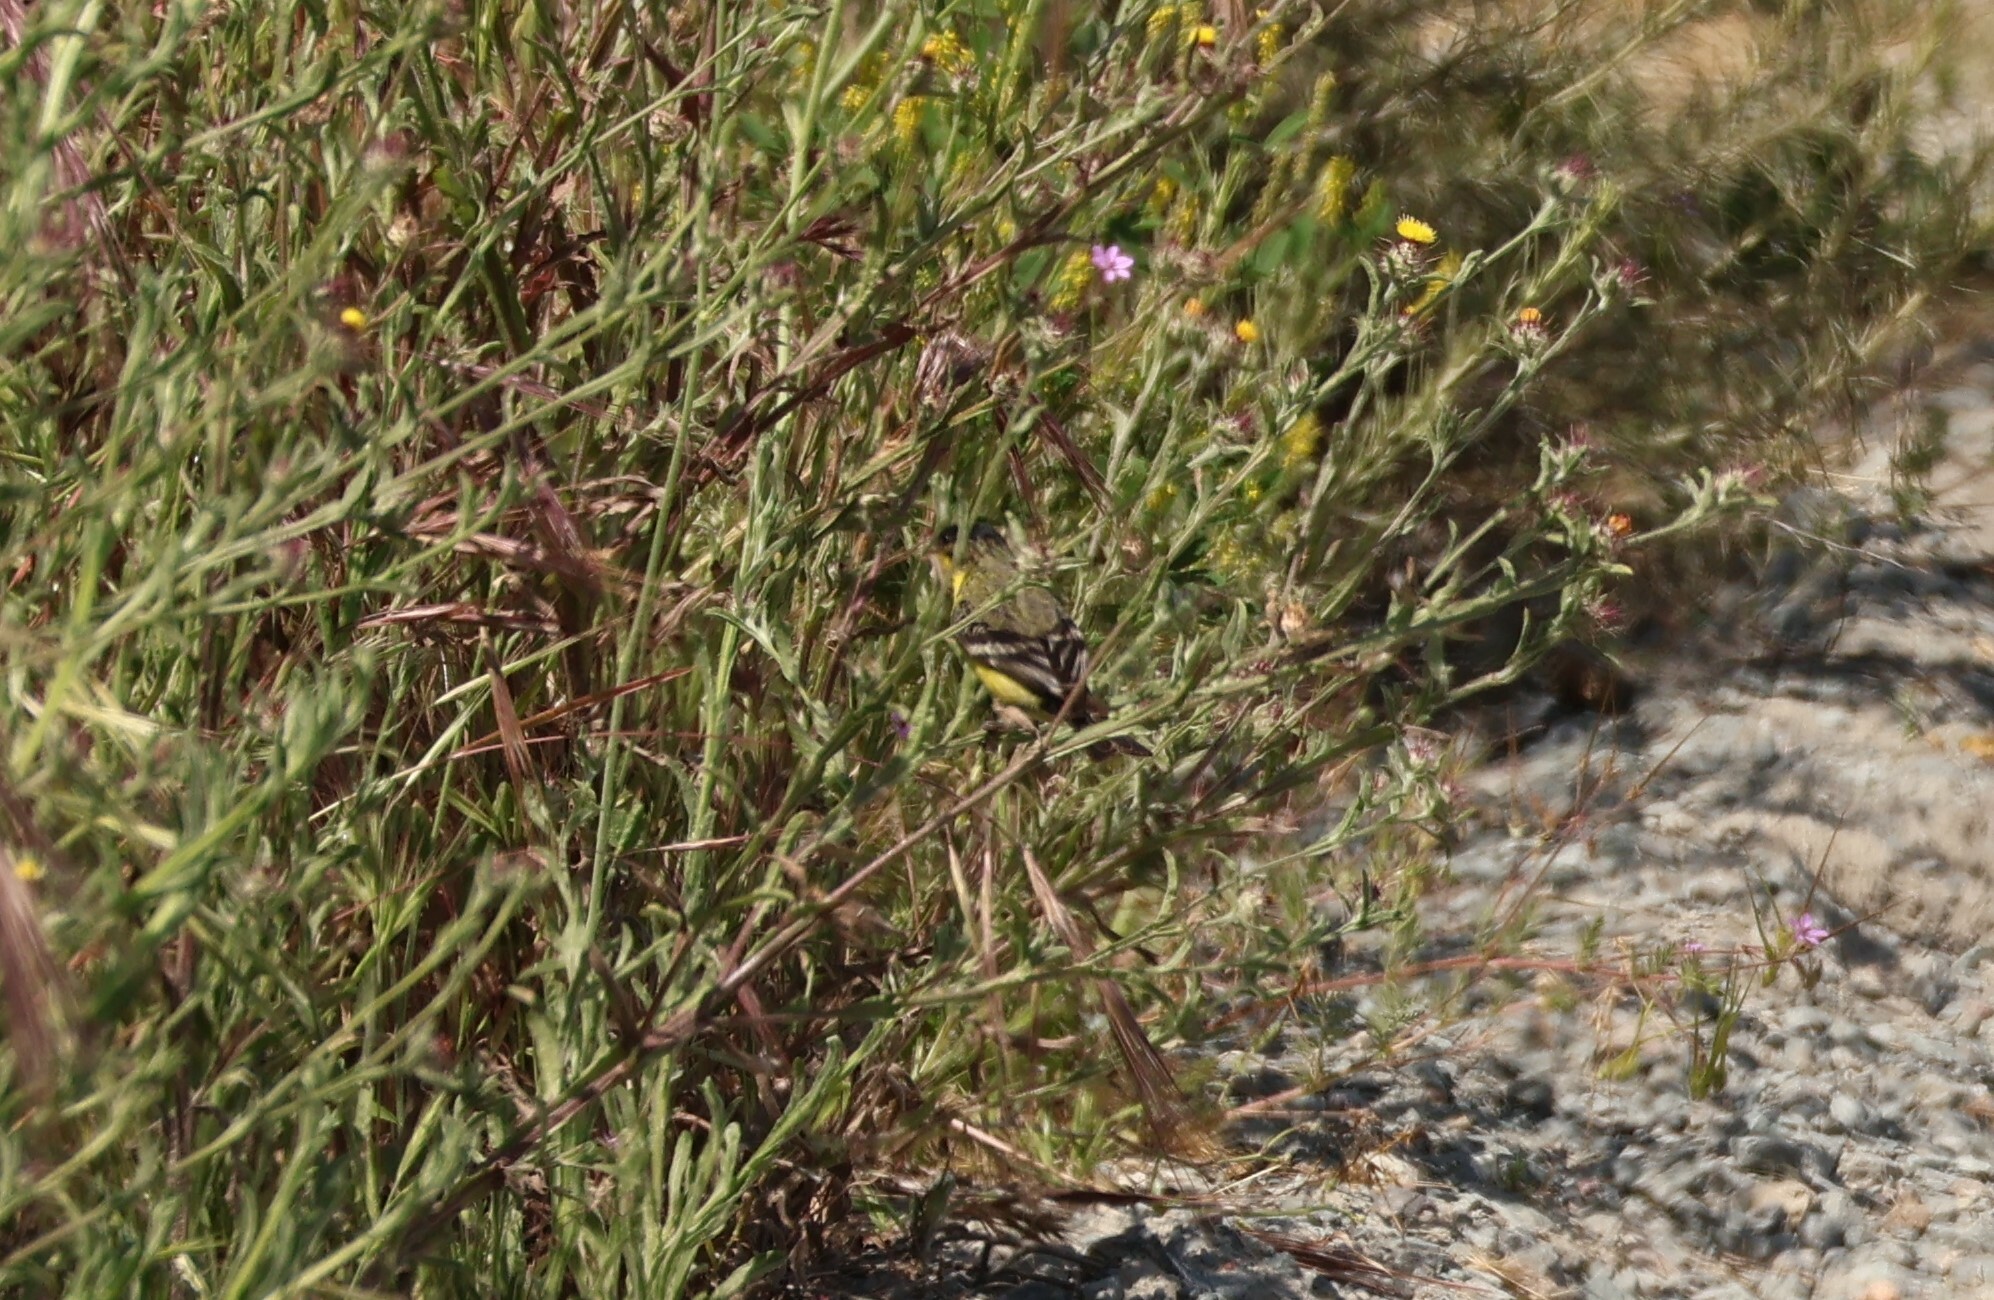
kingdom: Animalia
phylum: Chordata
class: Aves
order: Passeriformes
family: Fringillidae
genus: Spinus
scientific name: Spinus psaltria
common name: Lesser goldfinch
